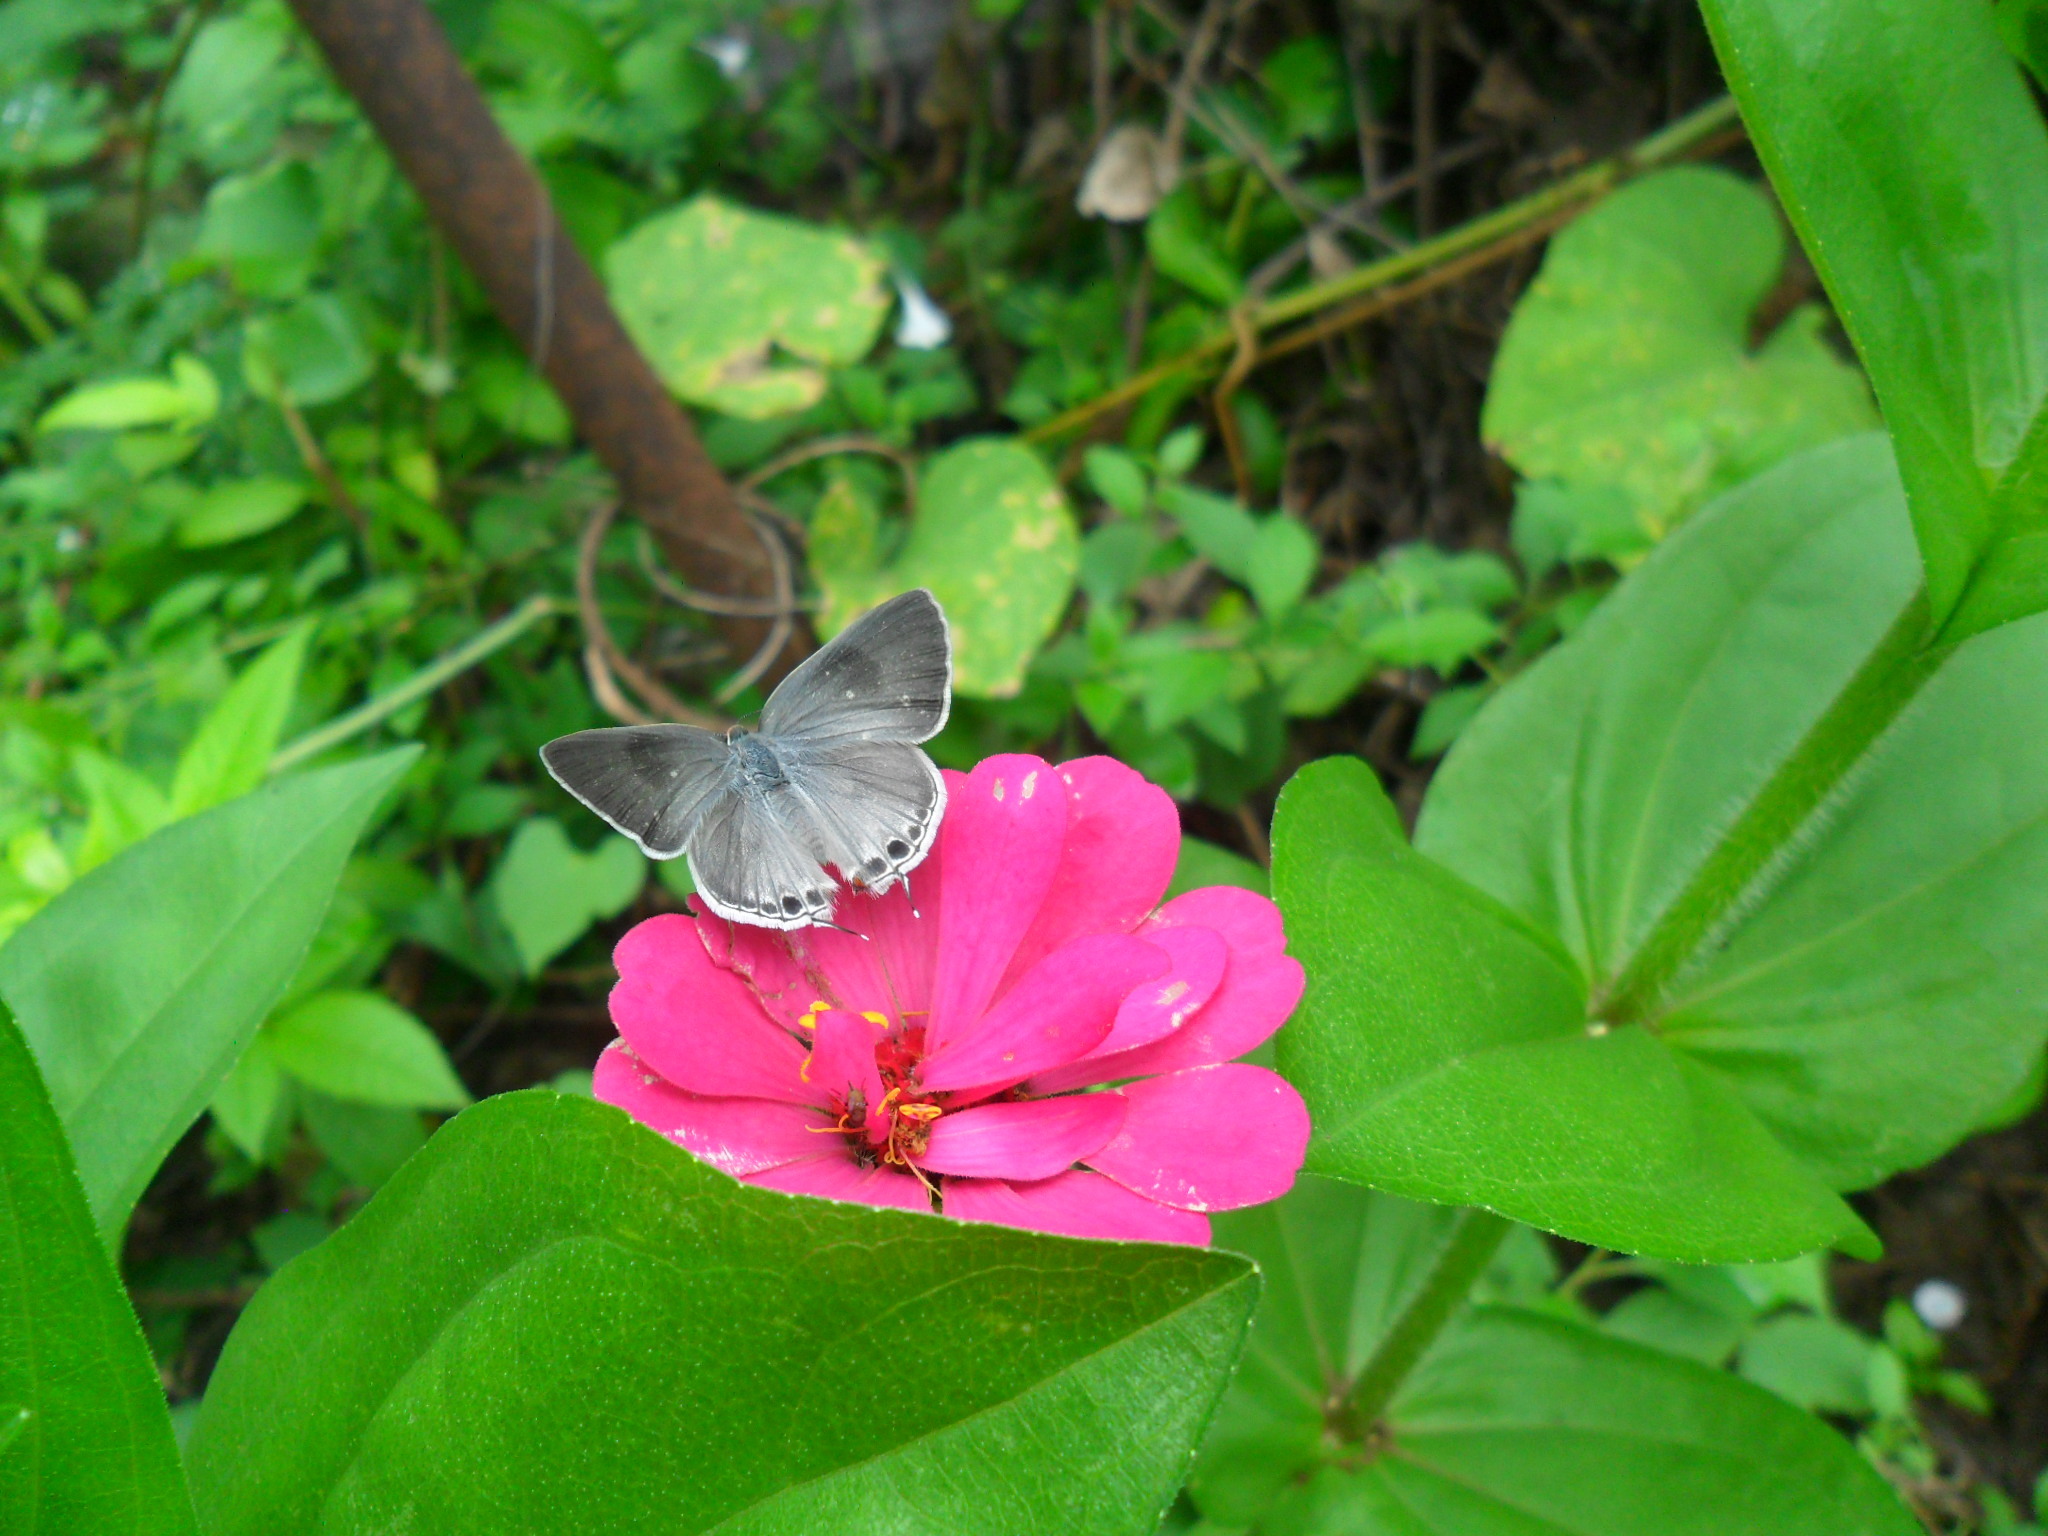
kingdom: Animalia
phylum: Arthropoda
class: Insecta
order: Lepidoptera
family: Lycaenidae
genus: Thecla
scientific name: Thecla yojoa
